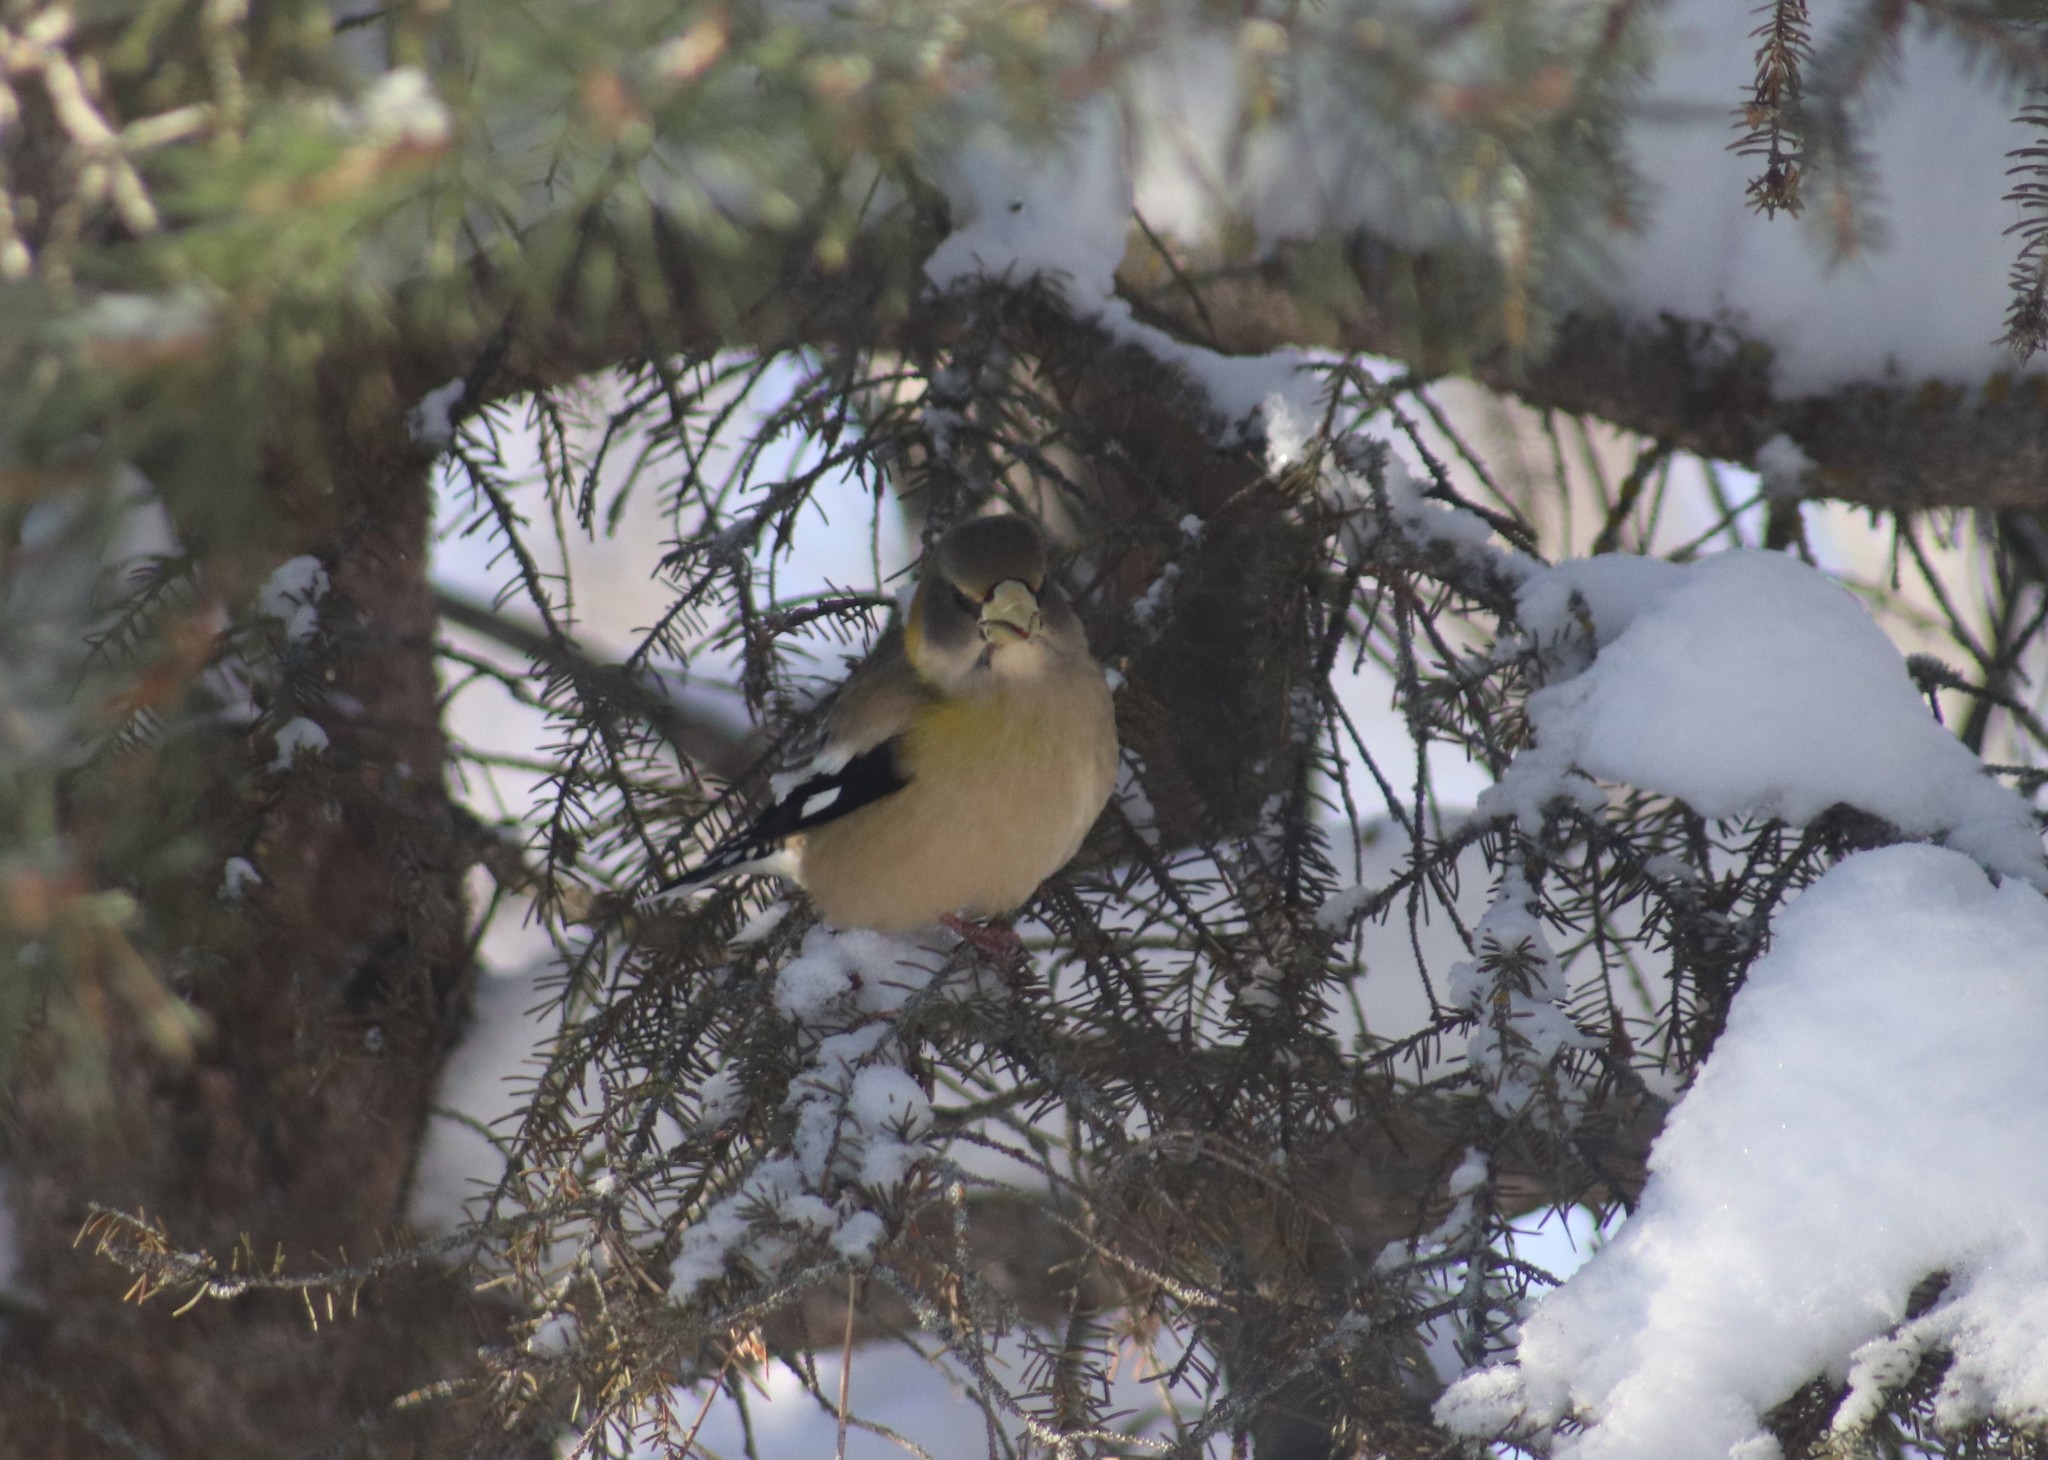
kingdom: Animalia
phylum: Chordata
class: Aves
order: Passeriformes
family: Fringillidae
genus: Hesperiphona
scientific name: Hesperiphona vespertina
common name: Evening grosbeak
